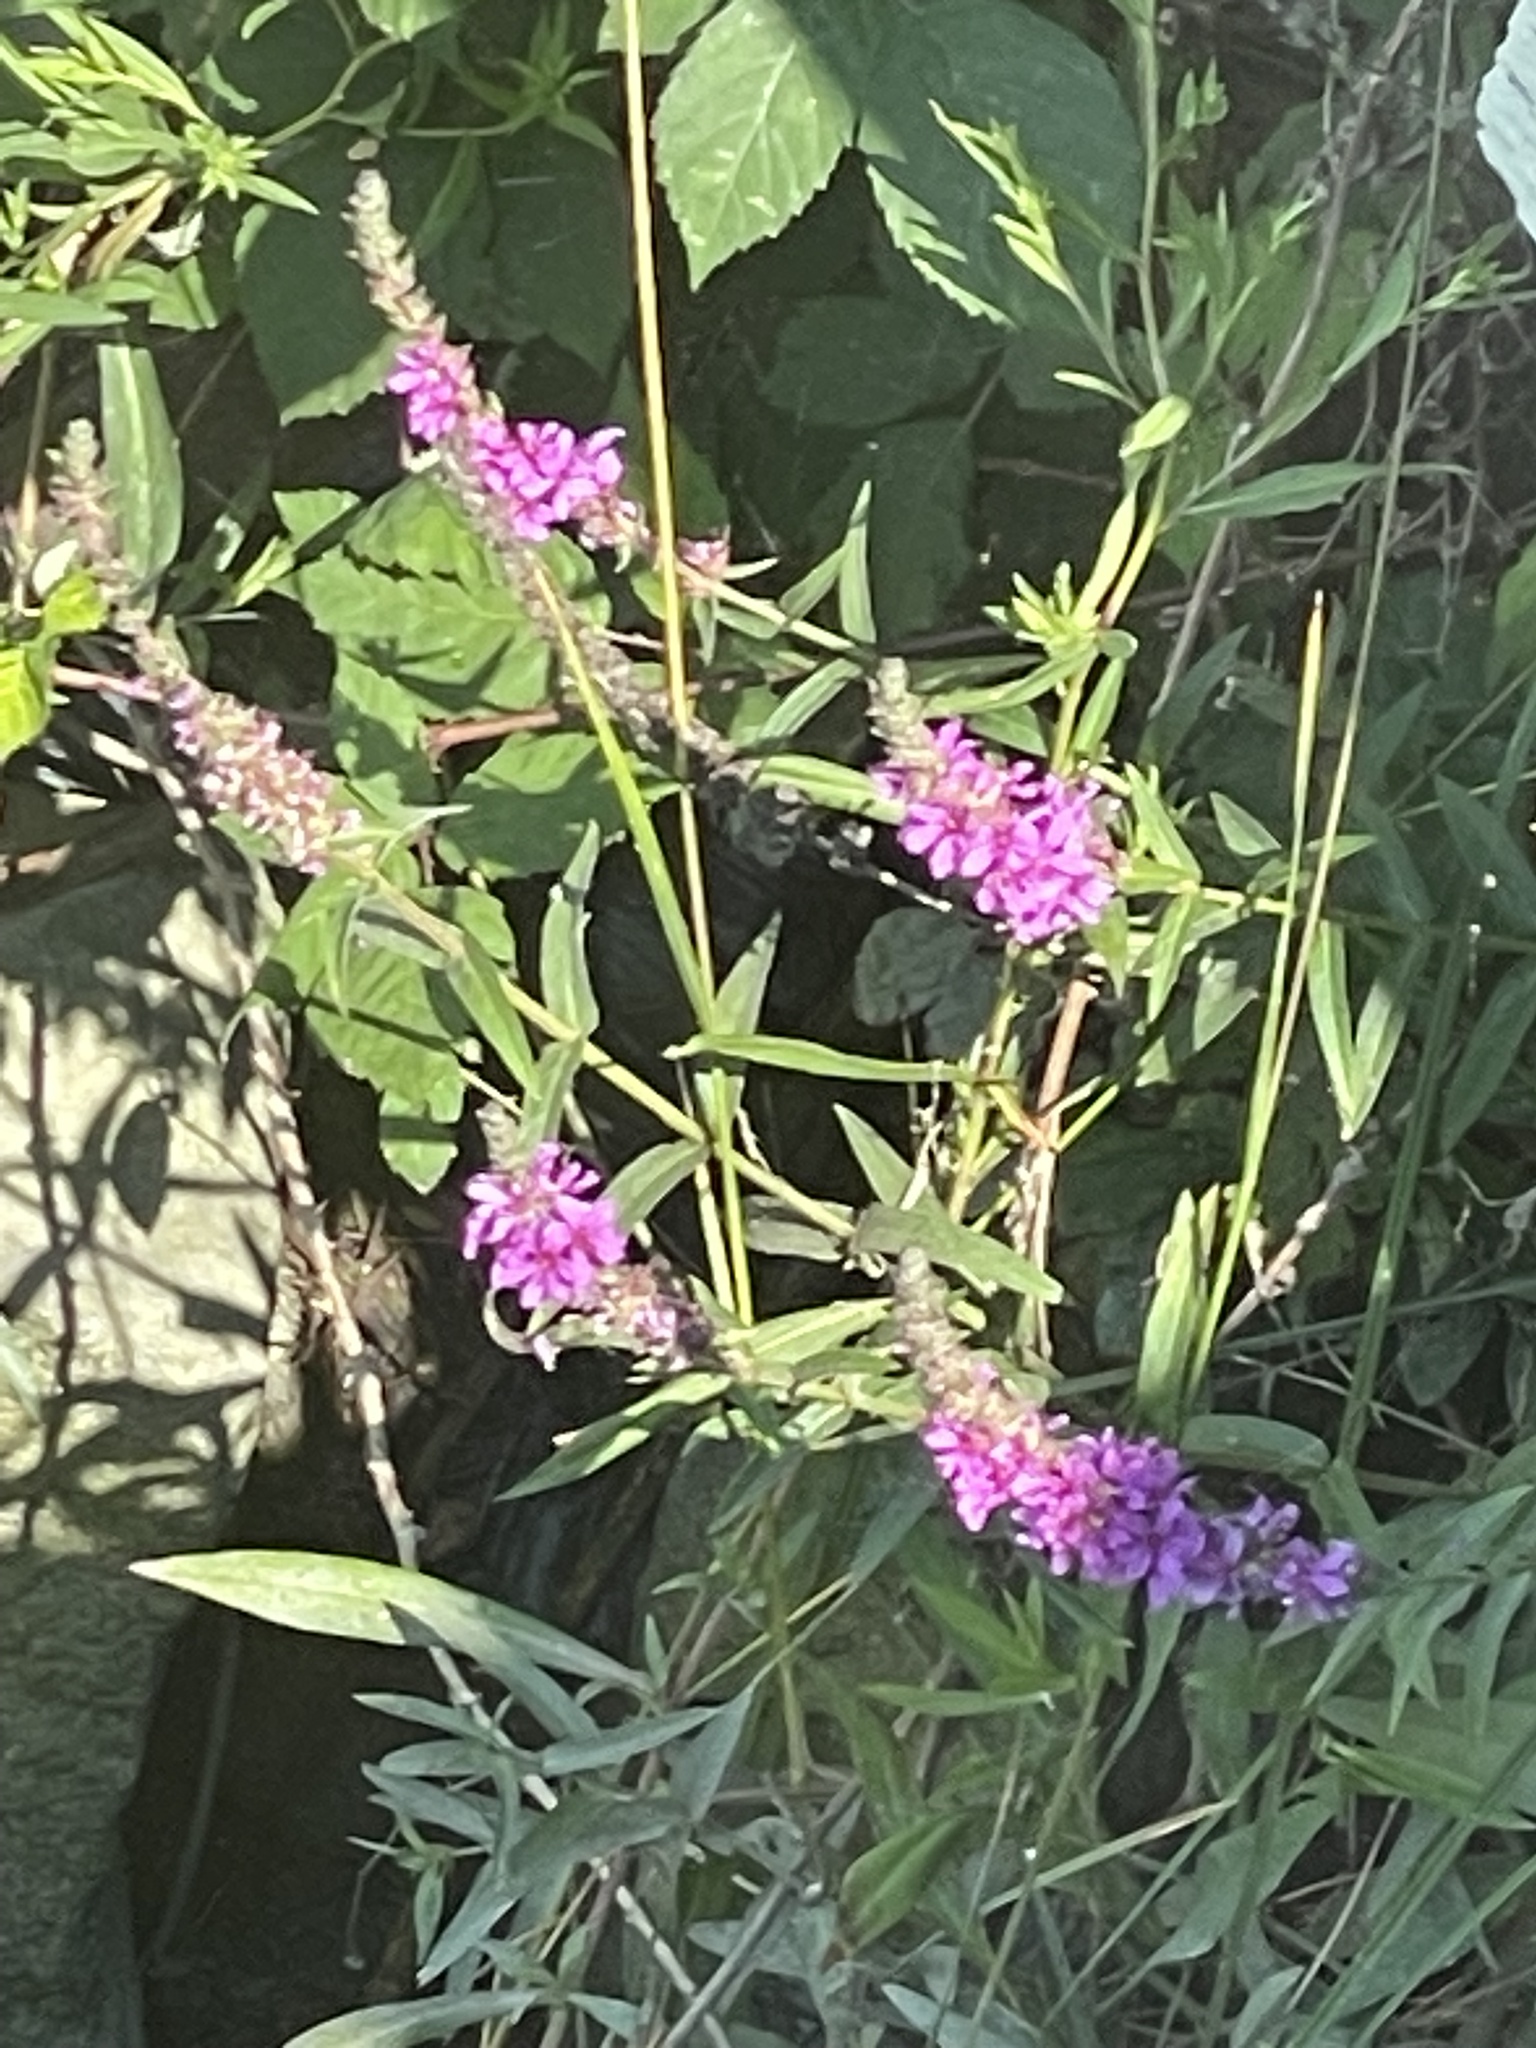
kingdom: Plantae
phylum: Tracheophyta
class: Magnoliopsida
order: Myrtales
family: Lythraceae
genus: Lythrum
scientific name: Lythrum salicaria
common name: Purple loosestrife
